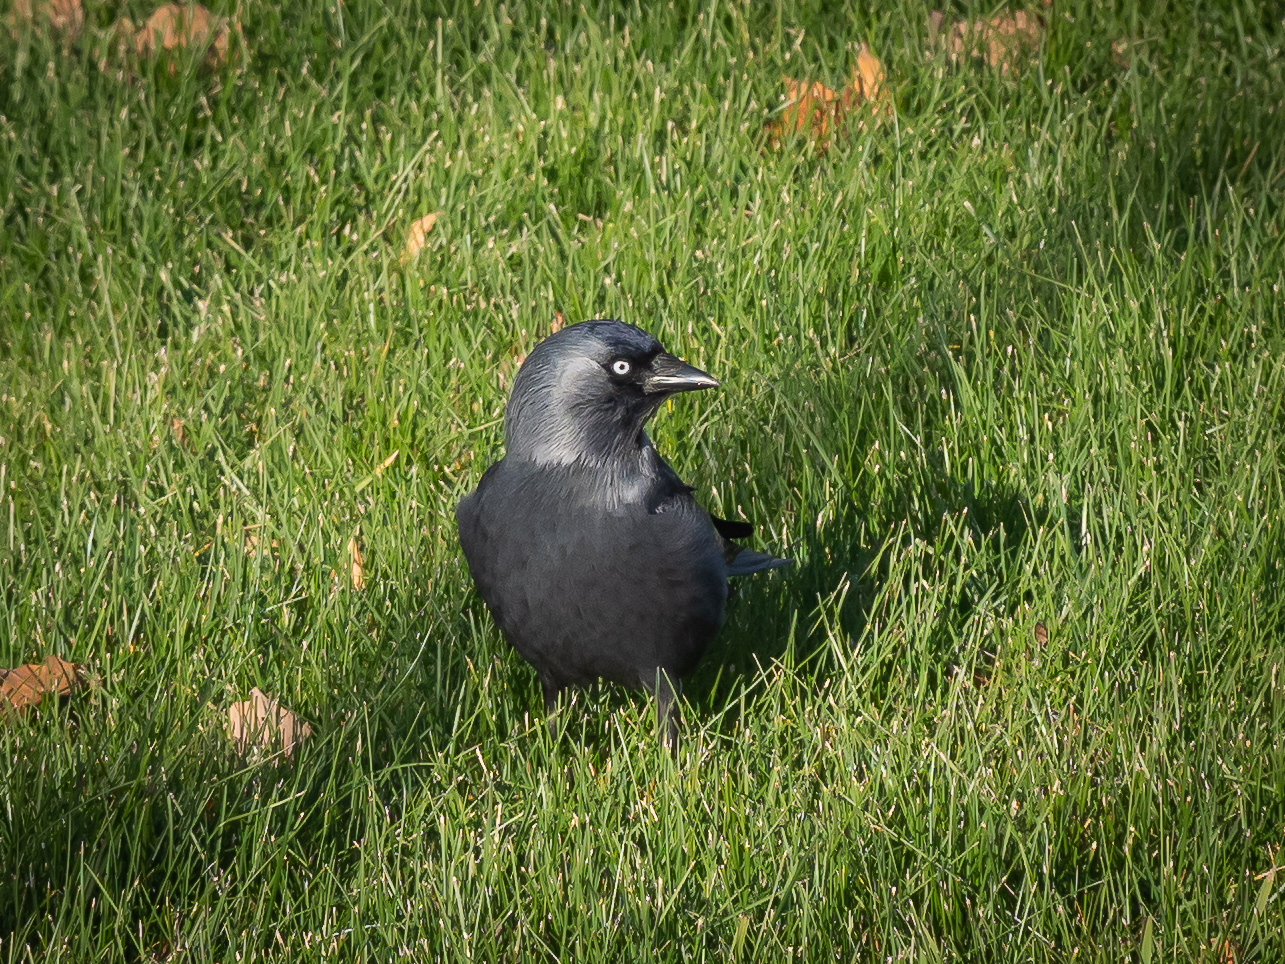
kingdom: Animalia
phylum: Chordata
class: Aves
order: Passeriformes
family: Corvidae
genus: Coloeus
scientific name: Coloeus monedula
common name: Western jackdaw
